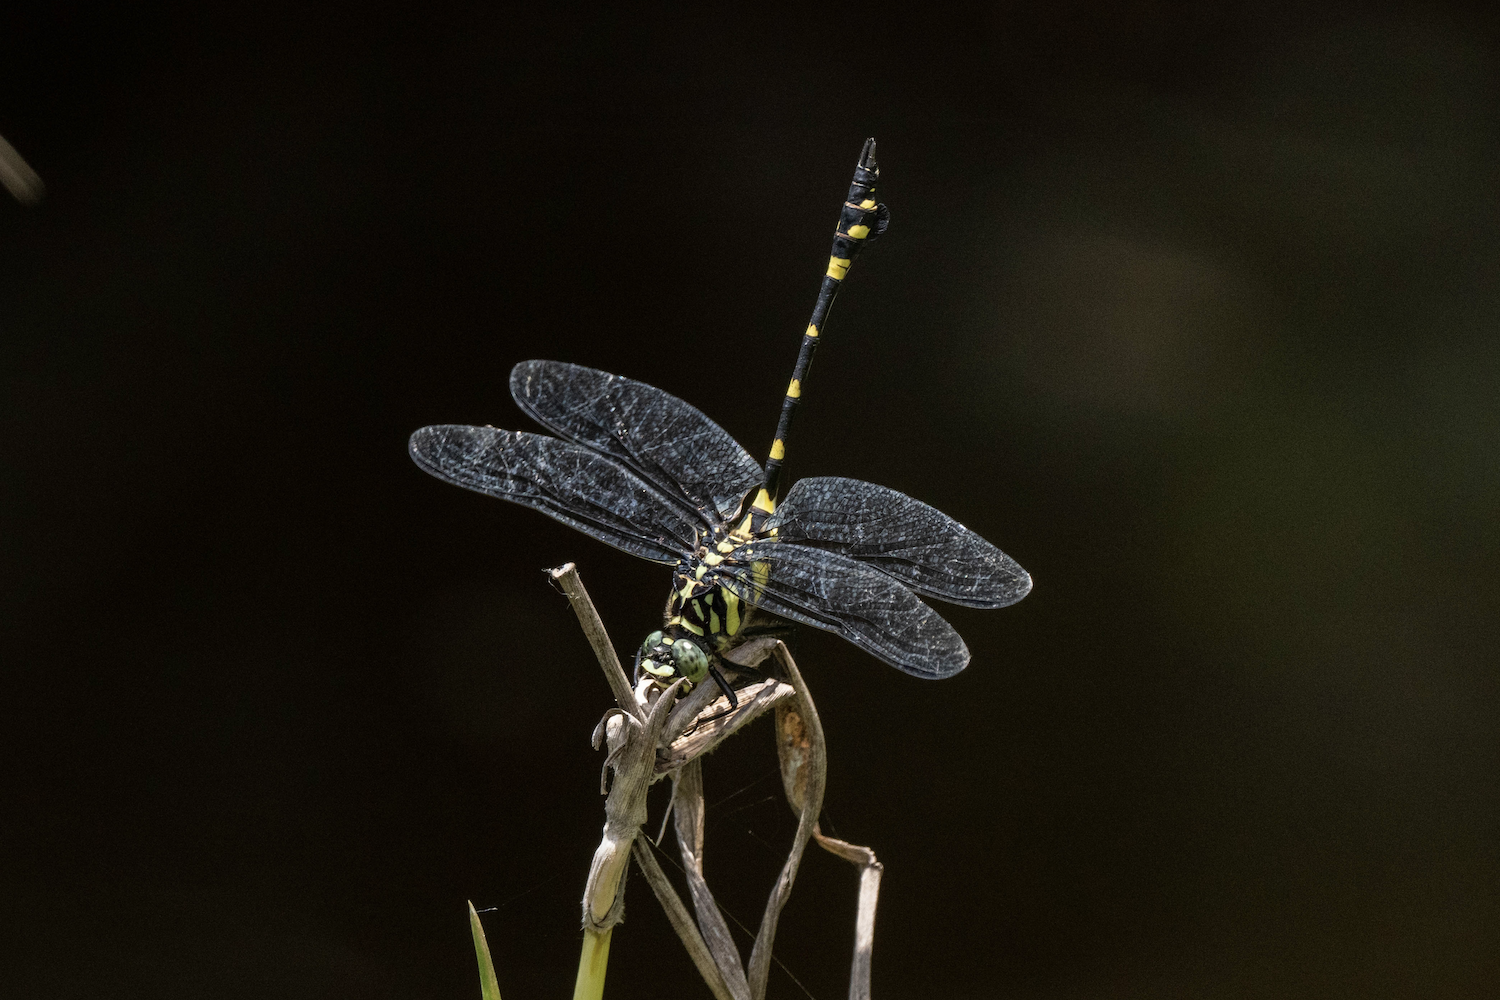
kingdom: Animalia
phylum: Arthropoda
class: Insecta
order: Odonata
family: Gomphidae
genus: Ictinogomphus
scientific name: Ictinogomphus pertinax
